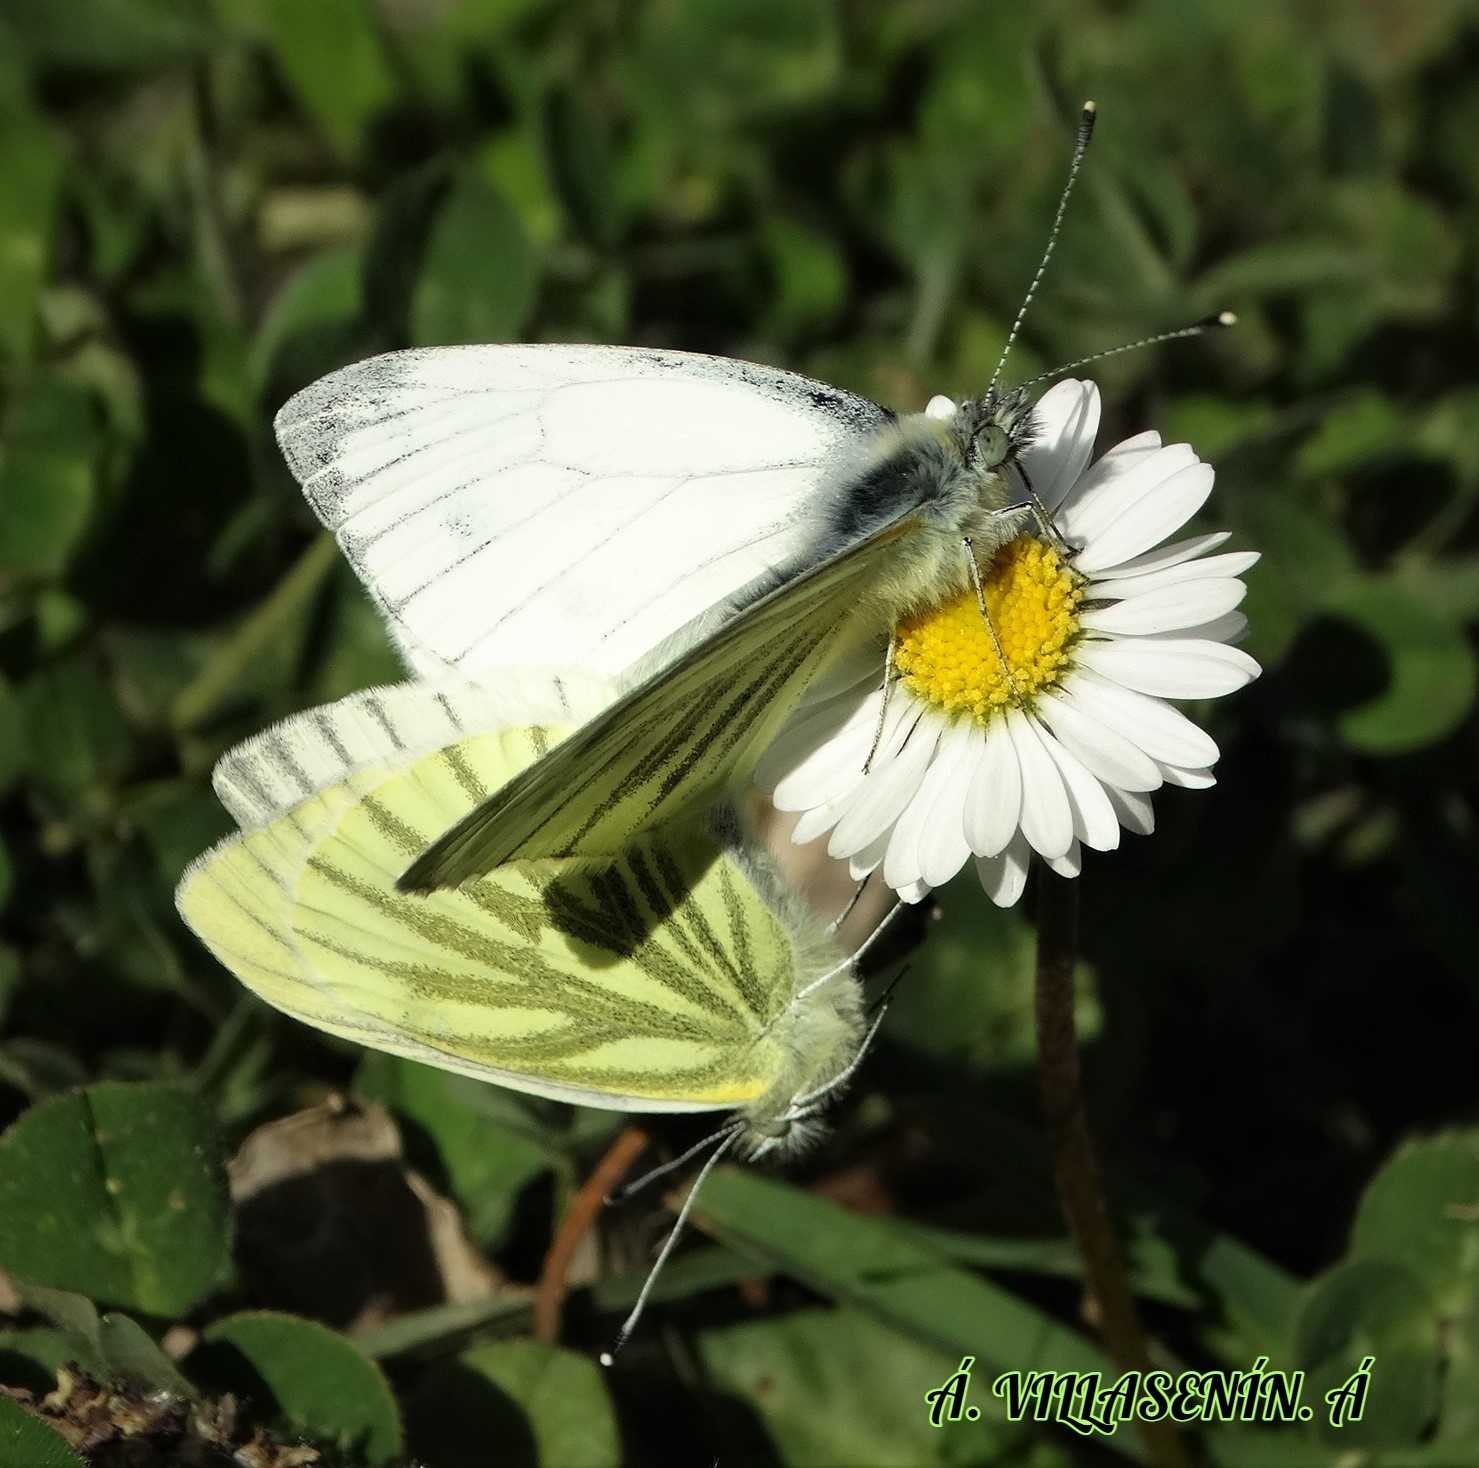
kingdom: Animalia
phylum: Arthropoda
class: Insecta
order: Lepidoptera
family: Pieridae
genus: Pieris
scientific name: Pieris napi
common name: Green-veined white
